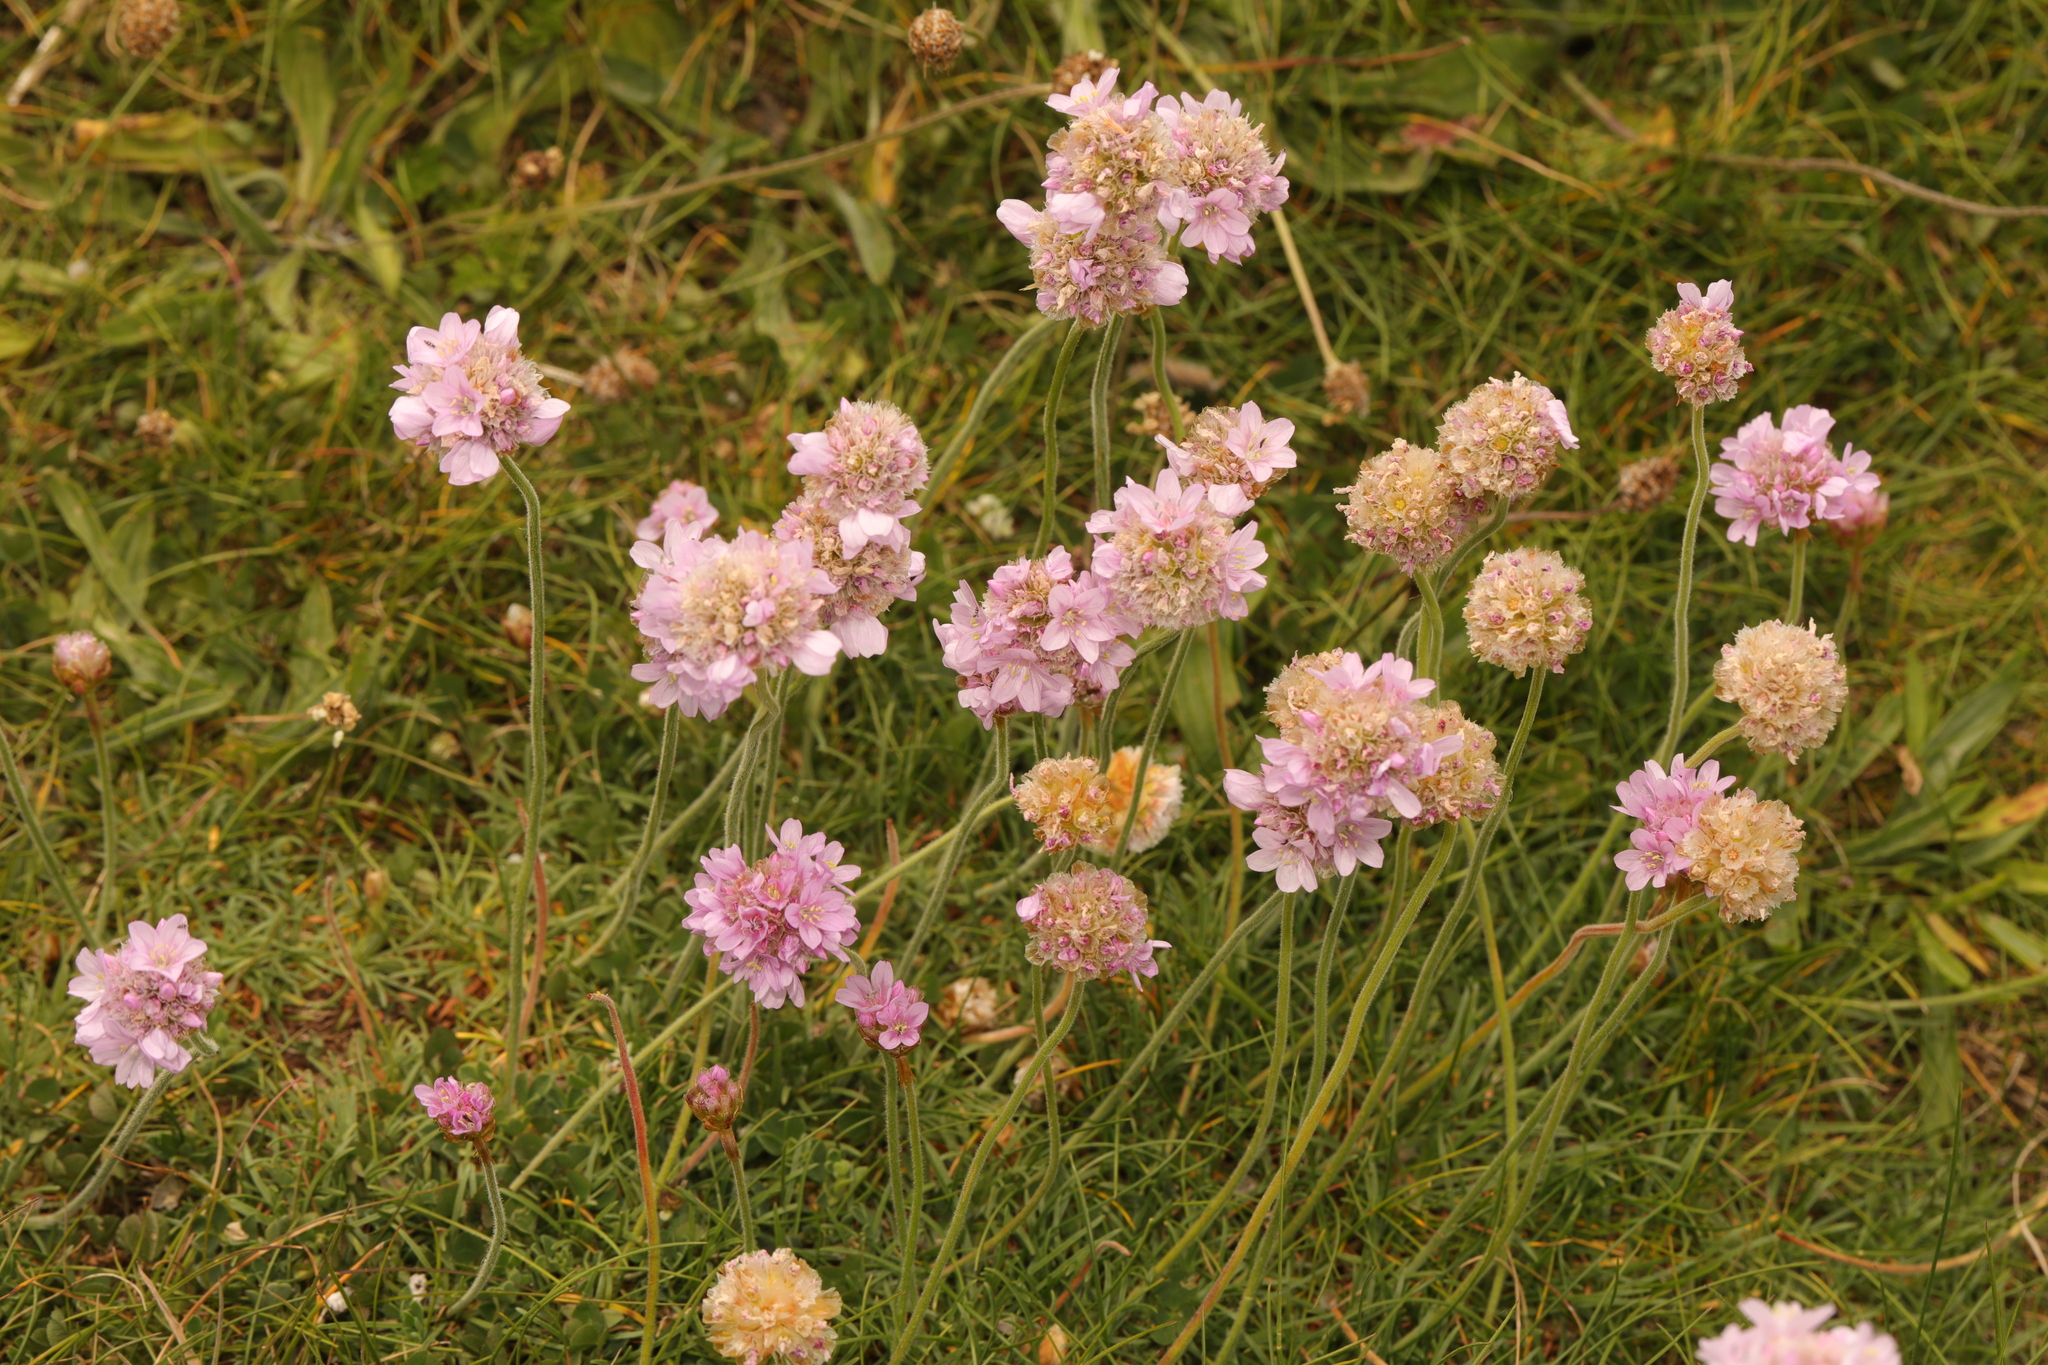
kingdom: Plantae
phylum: Tracheophyta
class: Magnoliopsida
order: Caryophyllales
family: Plumbaginaceae
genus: Armeria
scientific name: Armeria maritima
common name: Thrift
